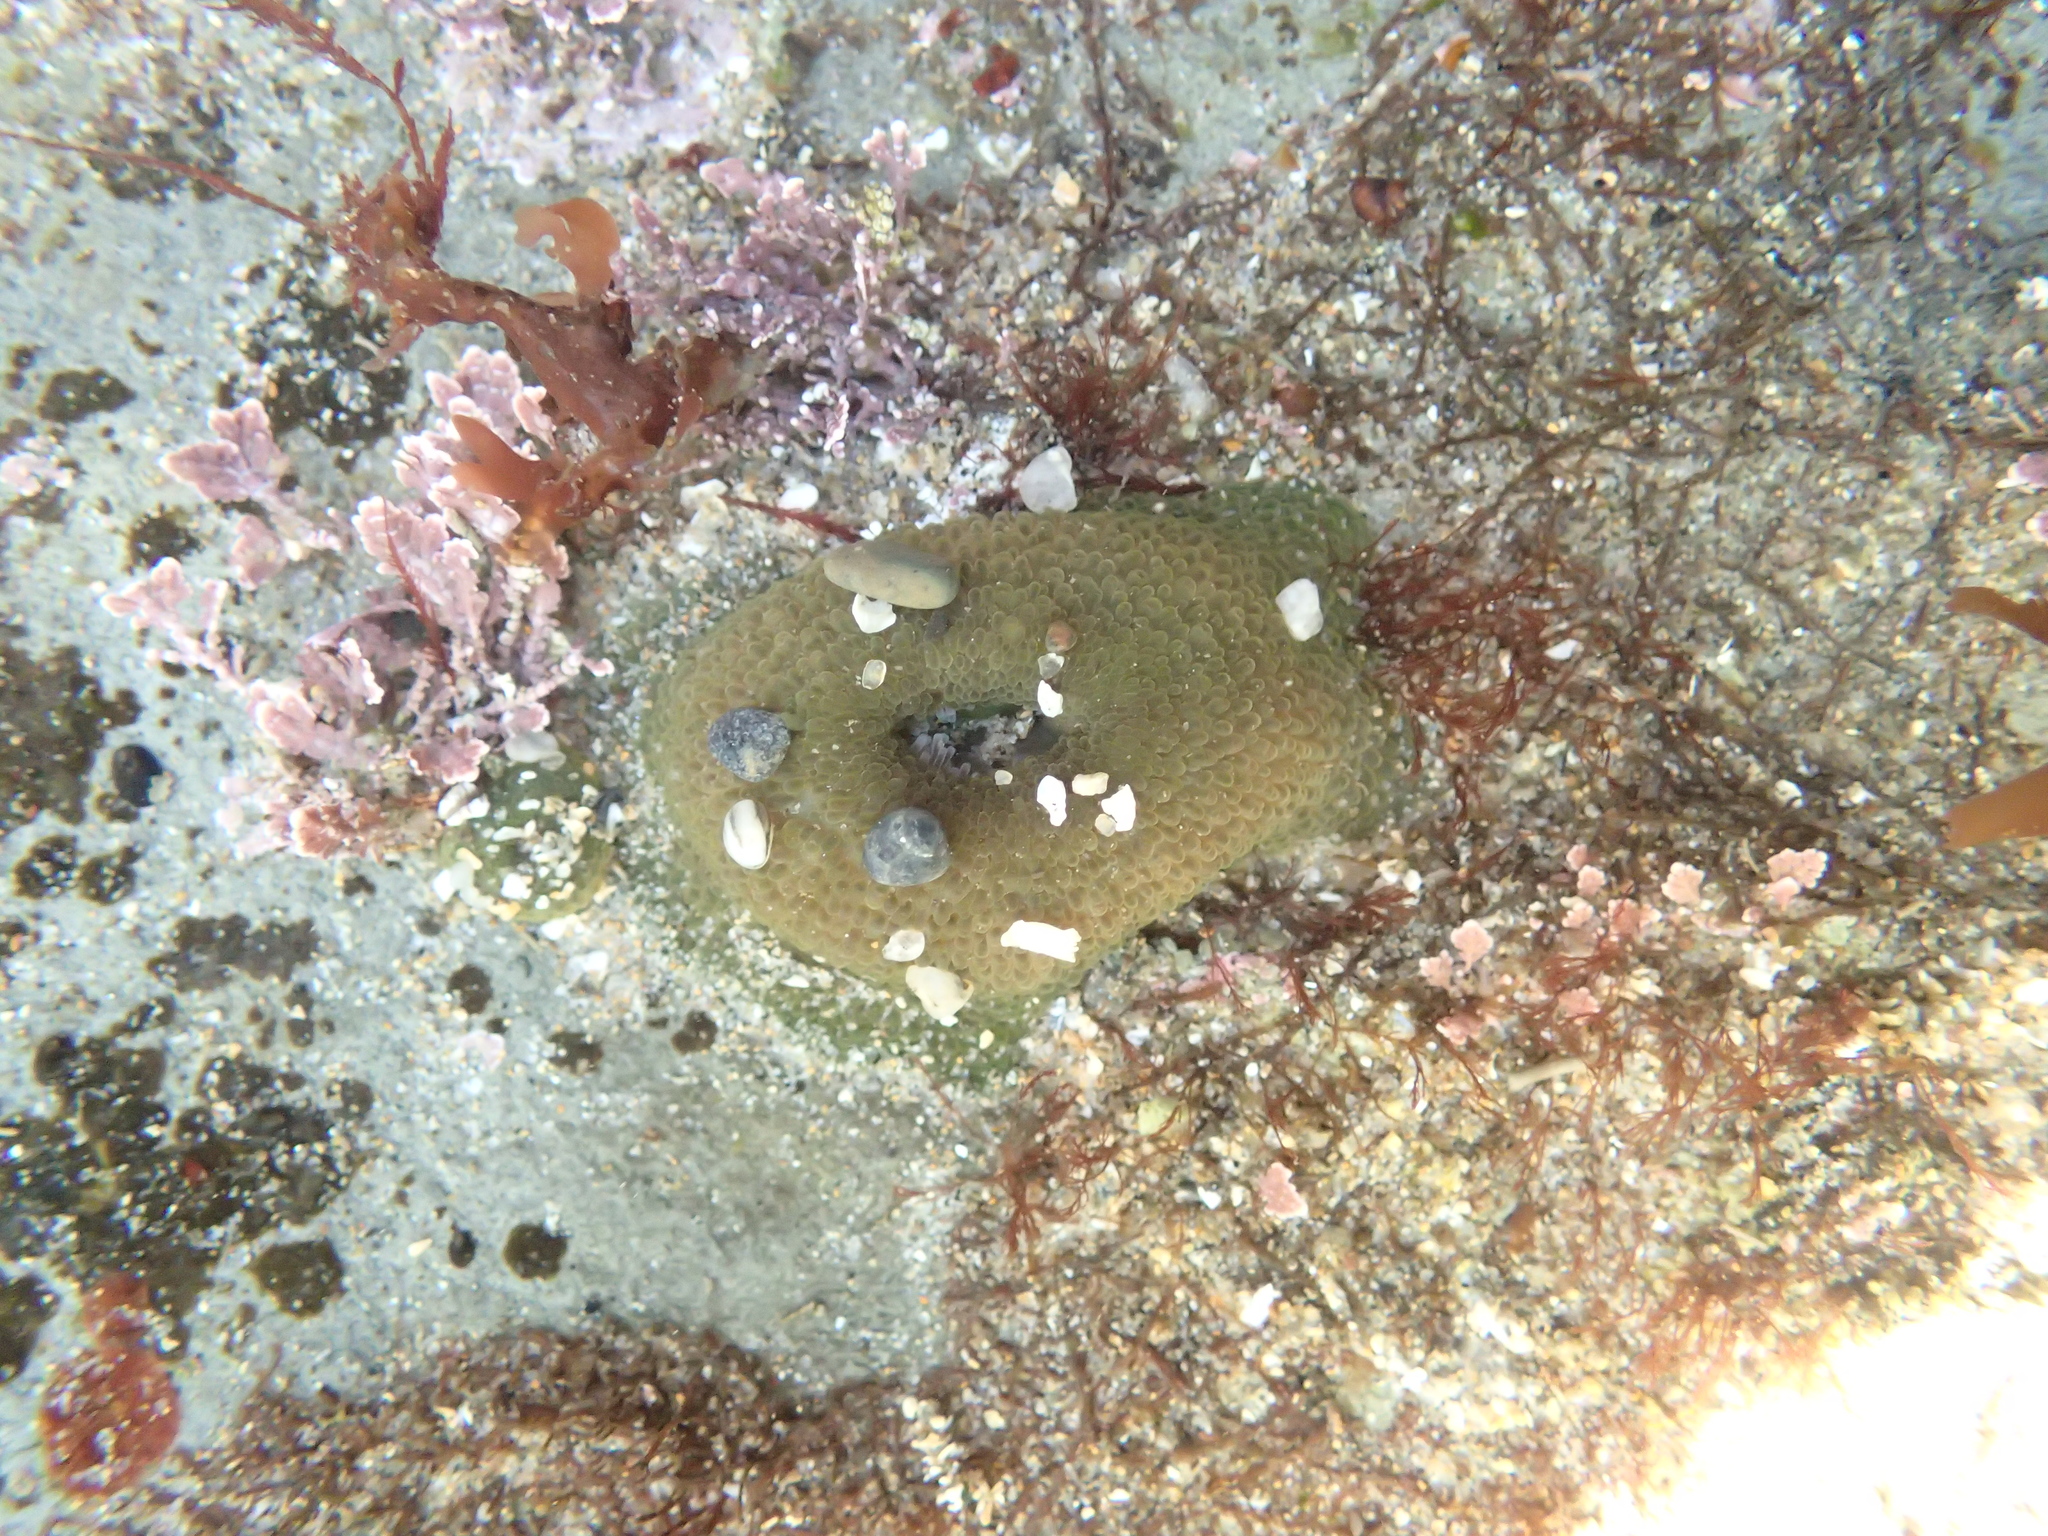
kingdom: Animalia
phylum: Cnidaria
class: Anthozoa
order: Actiniaria
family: Actiniidae
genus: Anthopleura
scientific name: Anthopleura xanthogrammica
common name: Giant green anemone
